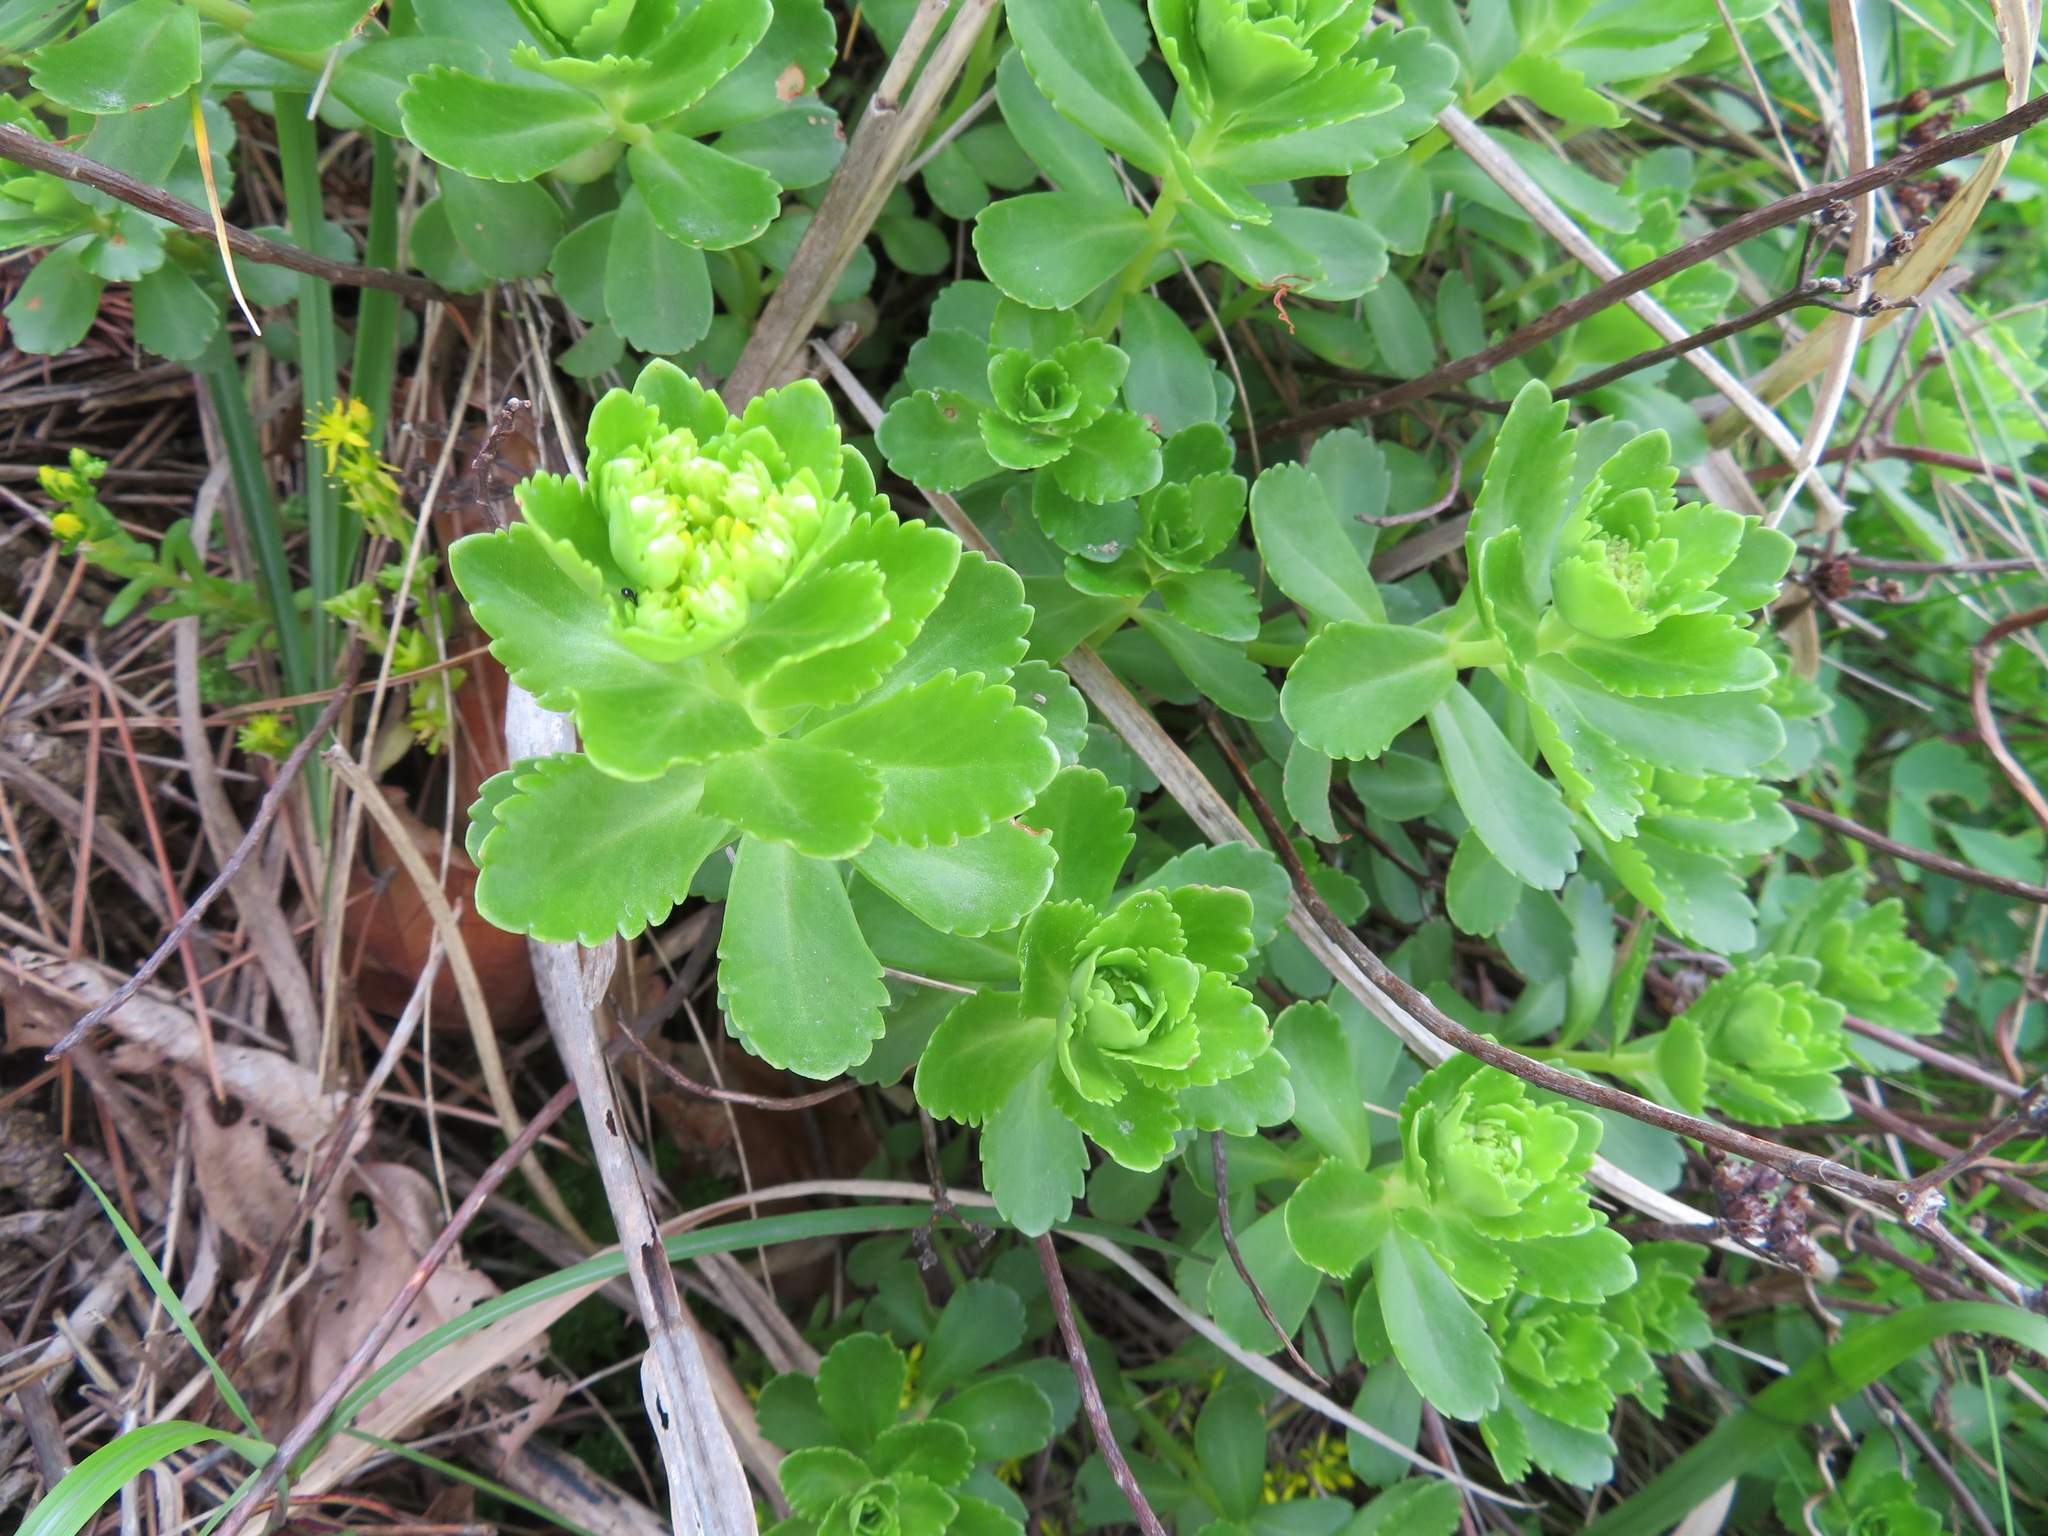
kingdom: Plantae
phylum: Tracheophyta
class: Magnoliopsida
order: Saxifragales
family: Crassulaceae
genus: Phedimus
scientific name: Phedimus aizoon
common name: Orpin aizoon
